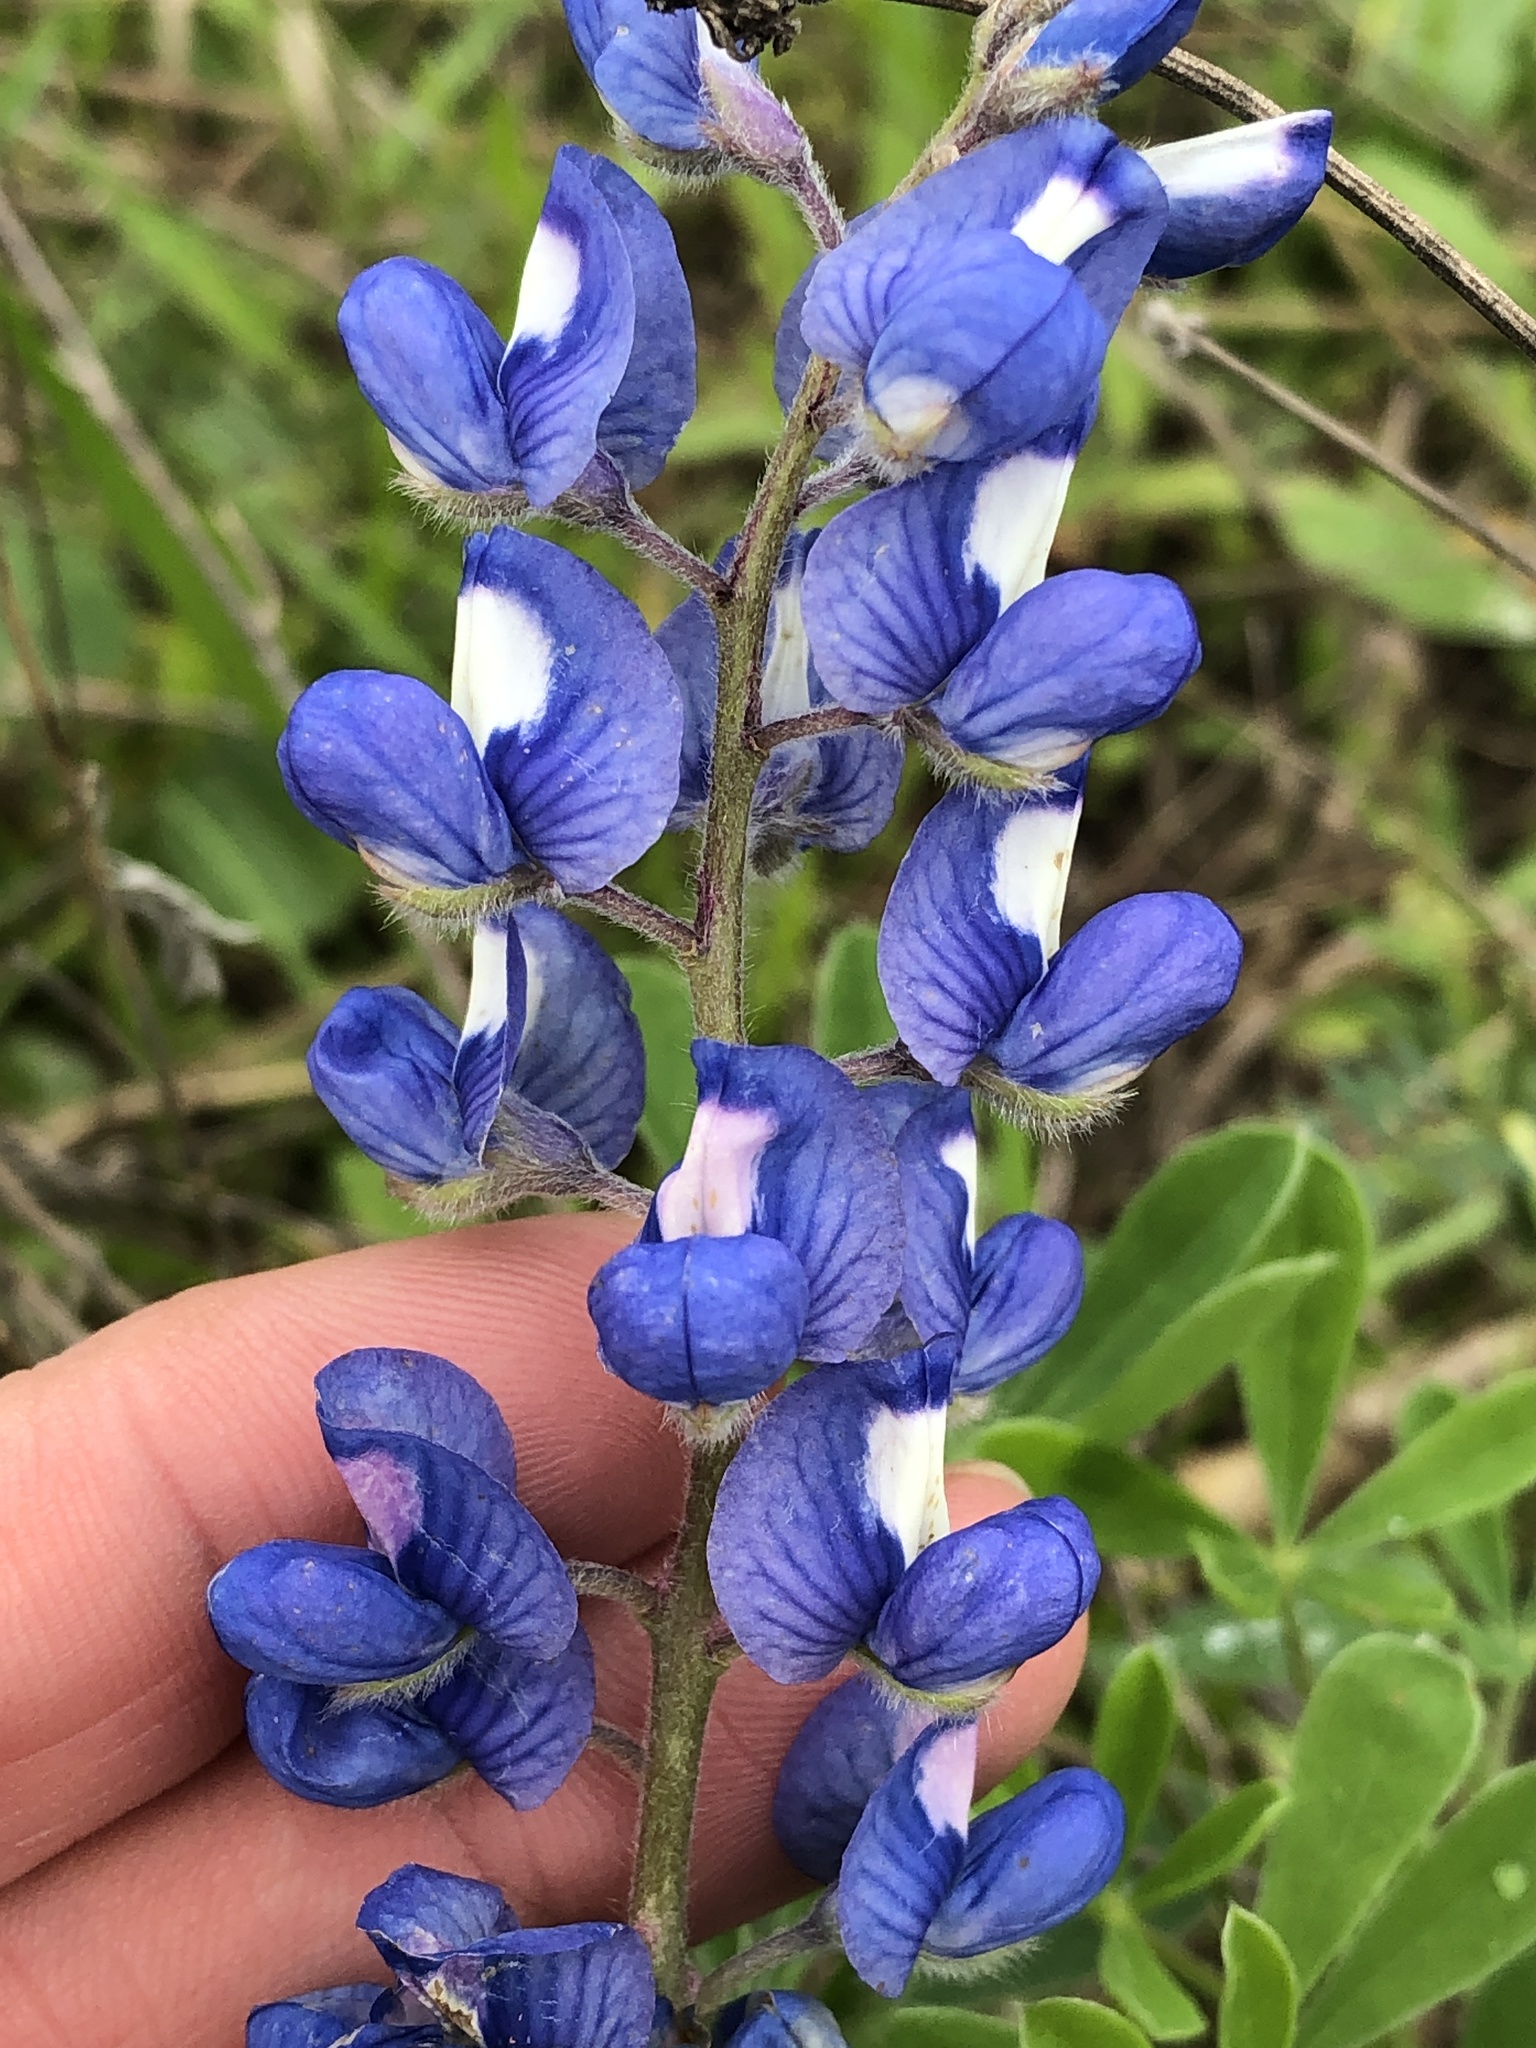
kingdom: Plantae
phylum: Tracheophyta
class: Magnoliopsida
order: Fabales
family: Fabaceae
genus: Lupinus
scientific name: Lupinus subcarnosus
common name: Texas bluebonnet
